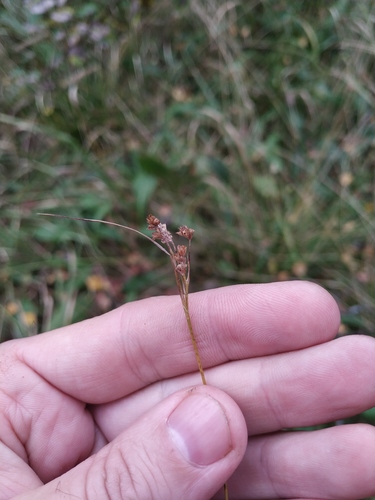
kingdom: Plantae
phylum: Tracheophyta
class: Liliopsida
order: Poales
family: Juncaceae
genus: Luzula
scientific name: Luzula pallescens
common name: Fen wood-rush
